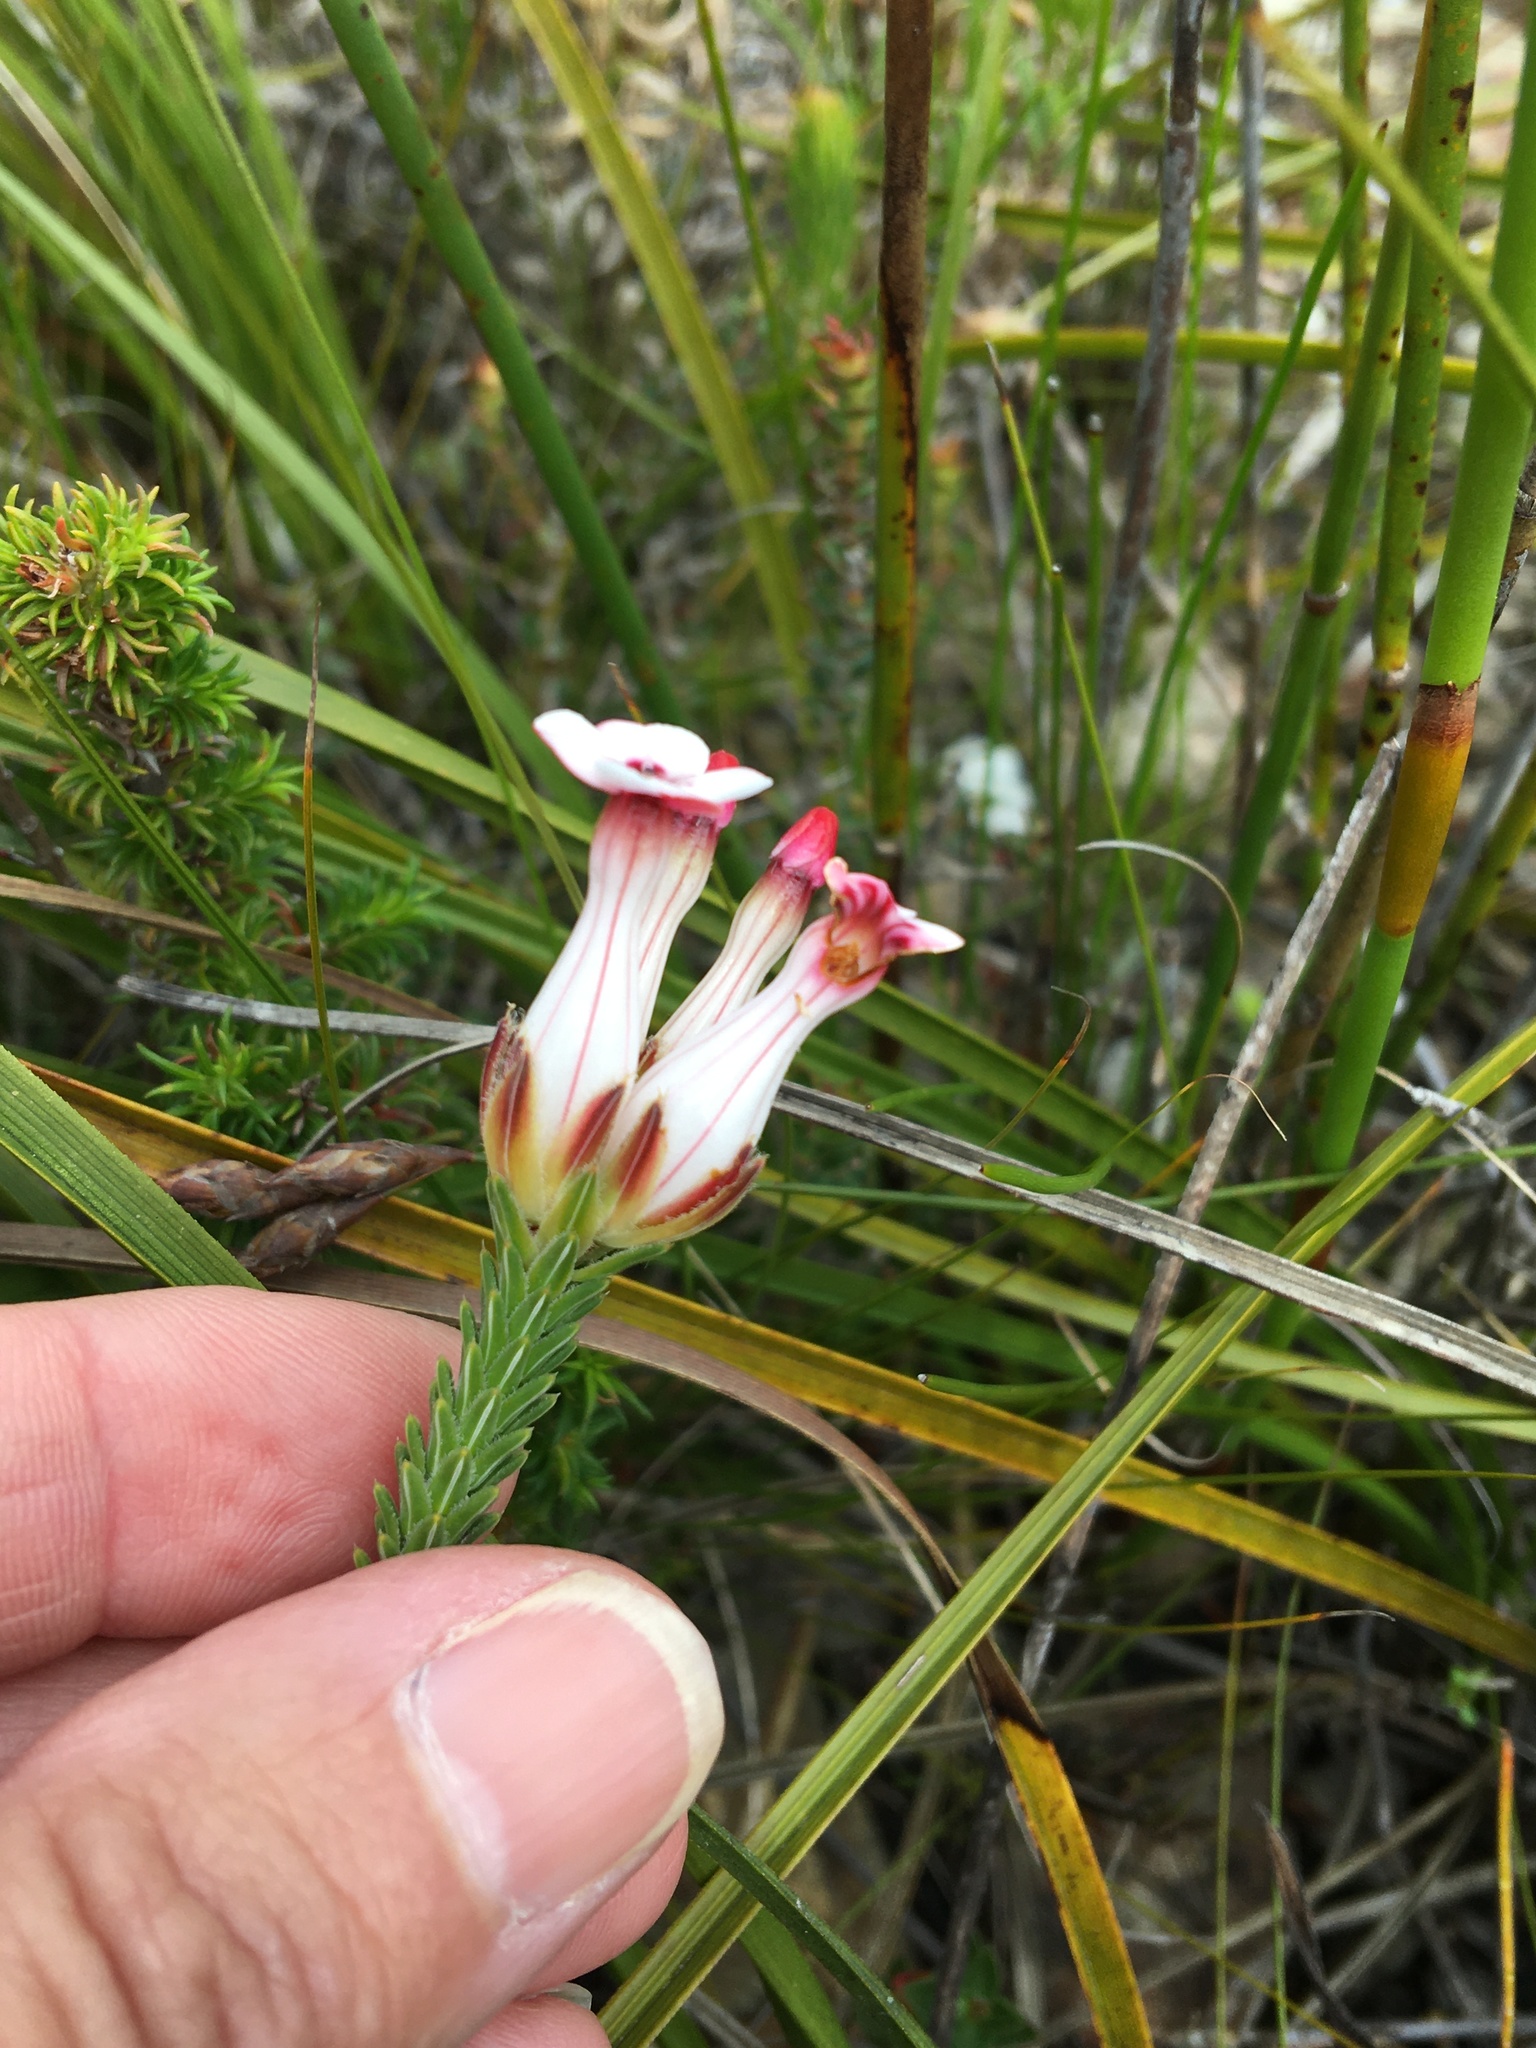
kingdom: Plantae
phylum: Tracheophyta
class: Magnoliopsida
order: Ericales
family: Ericaceae
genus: Erica
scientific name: Erica ampullacea
